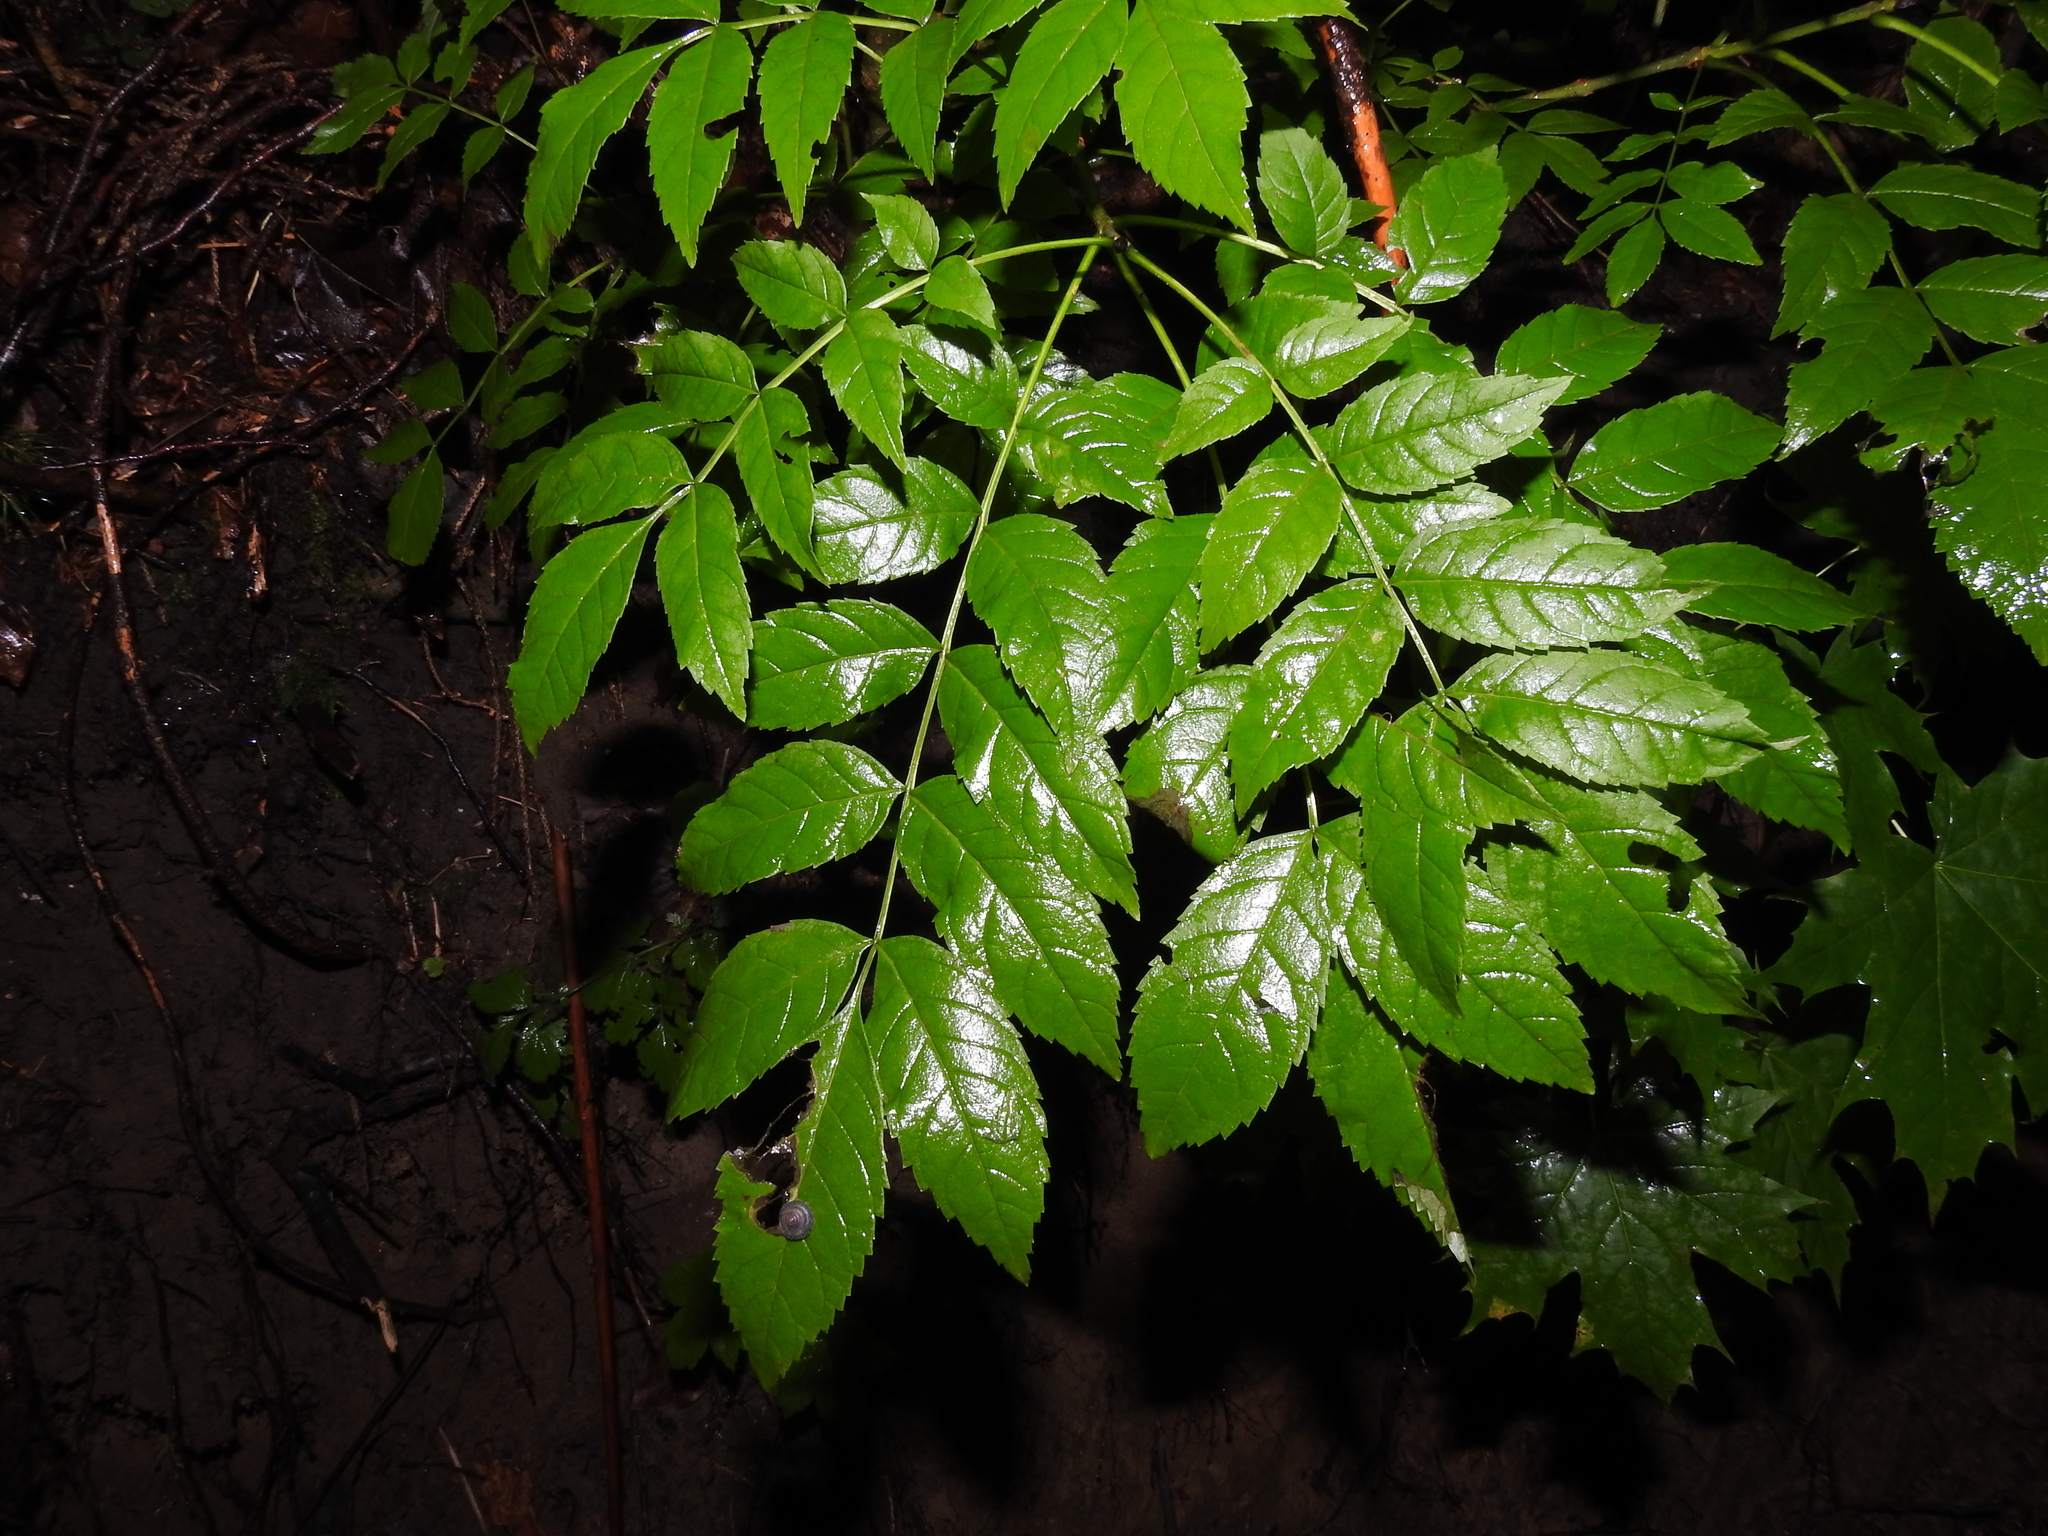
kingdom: Plantae
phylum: Tracheophyta
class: Magnoliopsida
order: Lamiales
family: Oleaceae
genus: Fraxinus
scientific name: Fraxinus excelsior
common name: European ash
